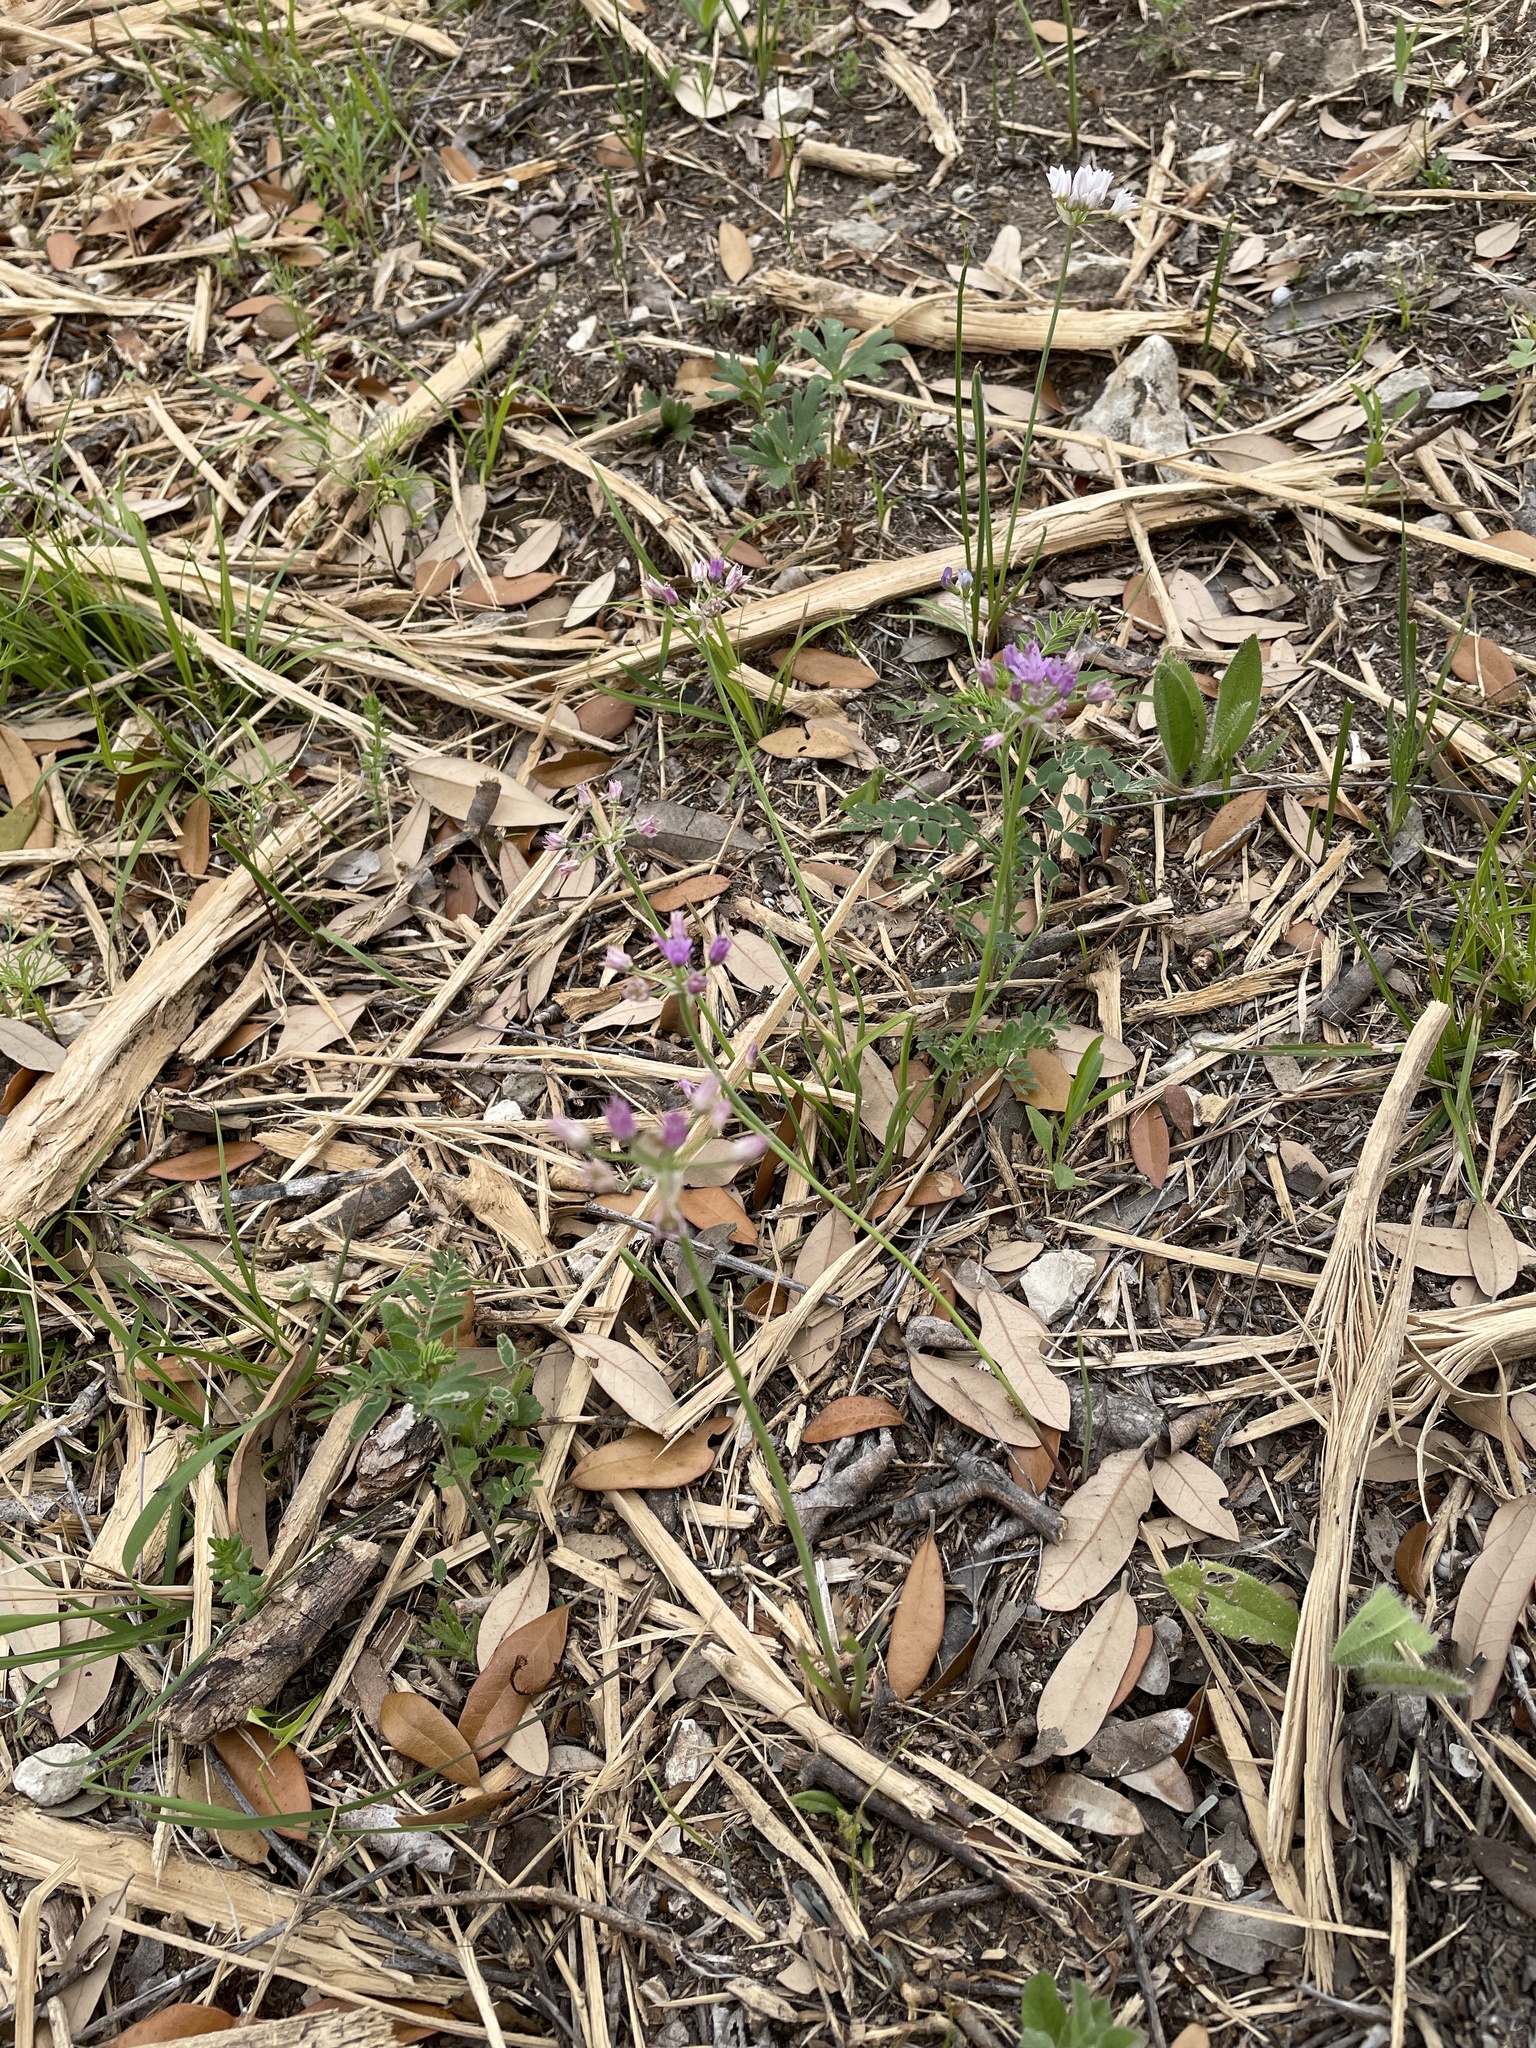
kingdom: Plantae
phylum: Tracheophyta
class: Liliopsida
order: Asparagales
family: Amaryllidaceae
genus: Allium
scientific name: Allium drummondii
